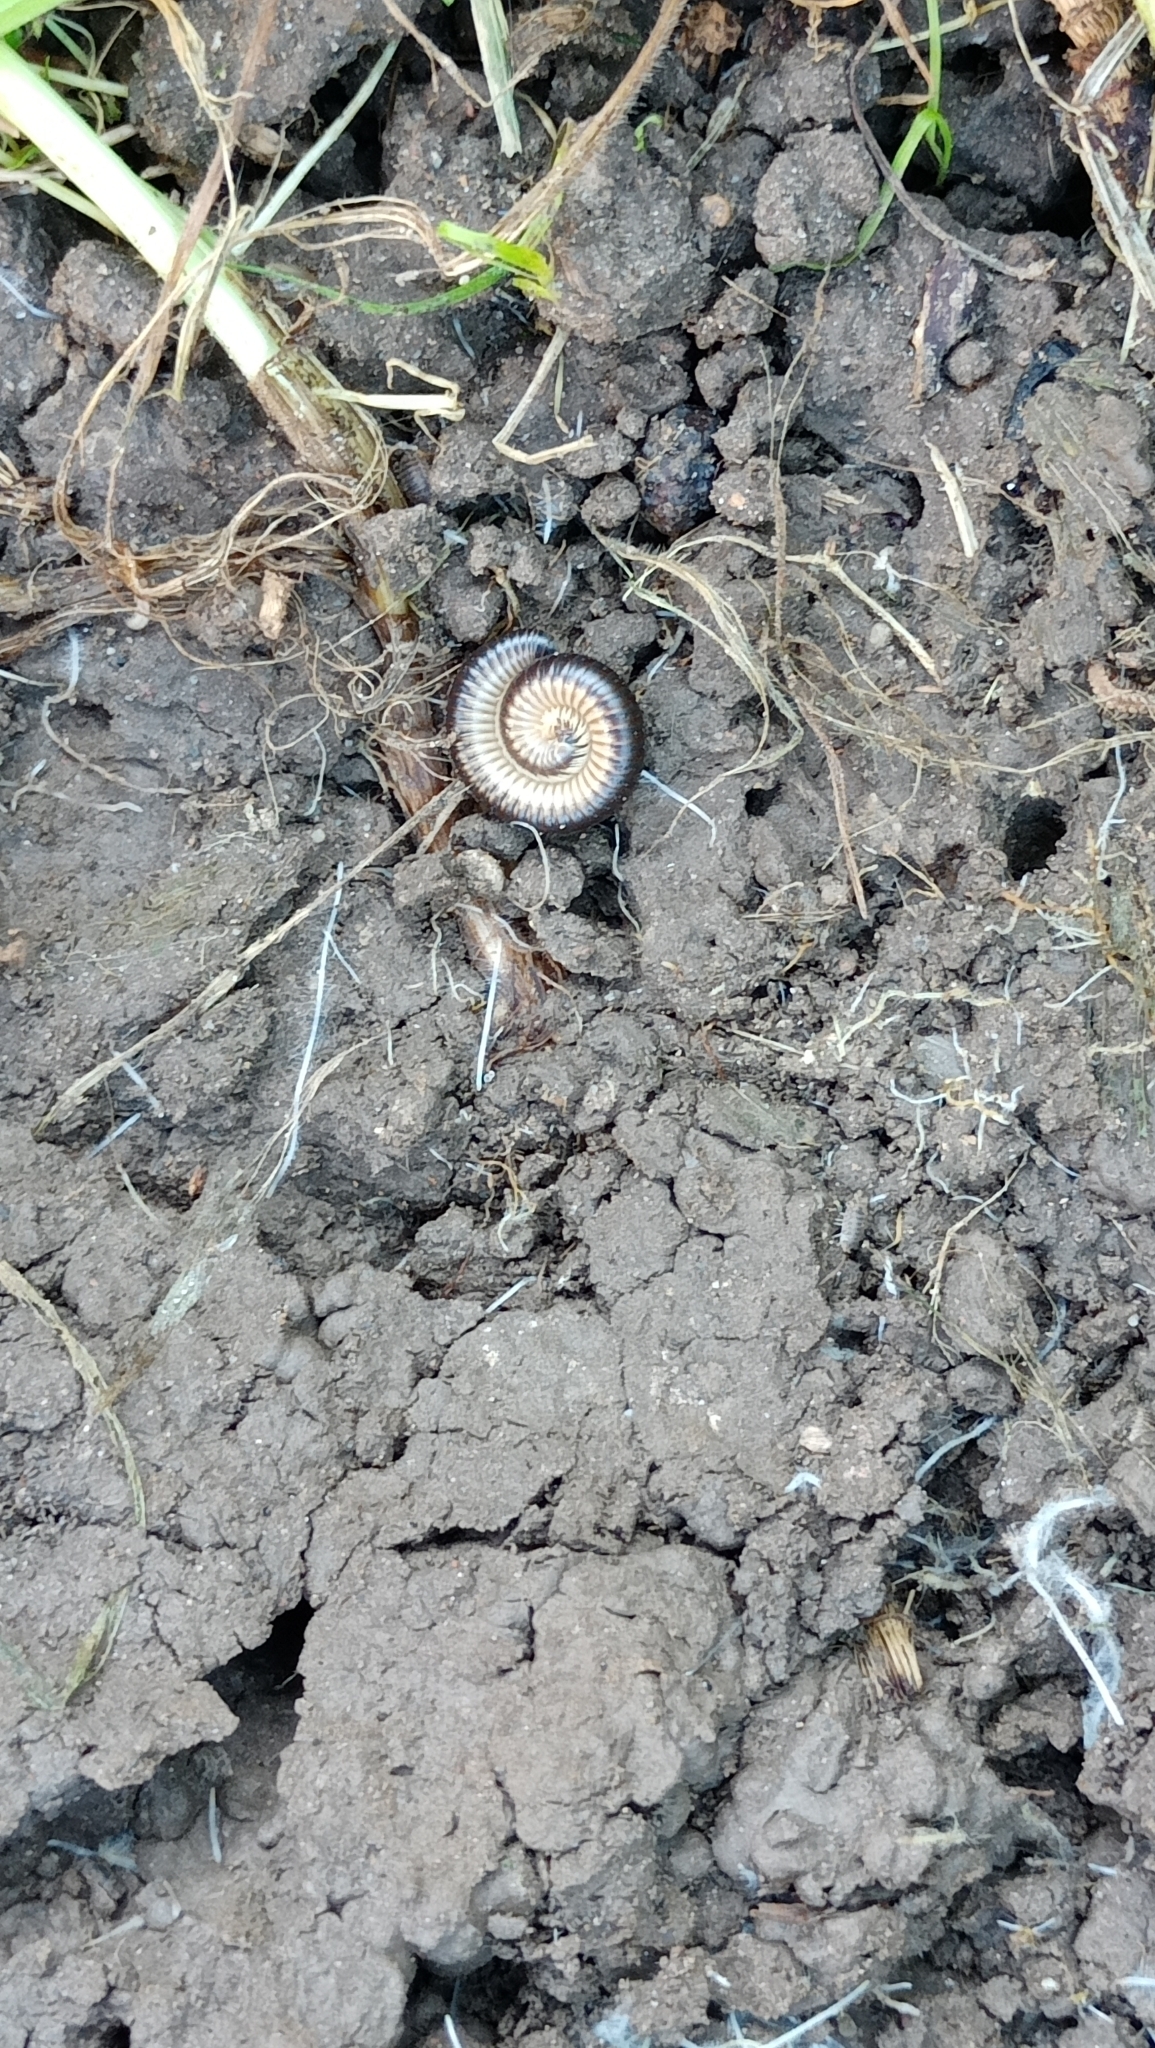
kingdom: Animalia
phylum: Arthropoda
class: Diplopoda
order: Julida
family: Julidae
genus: Pachyiulus
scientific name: Pachyiulus flavipes
